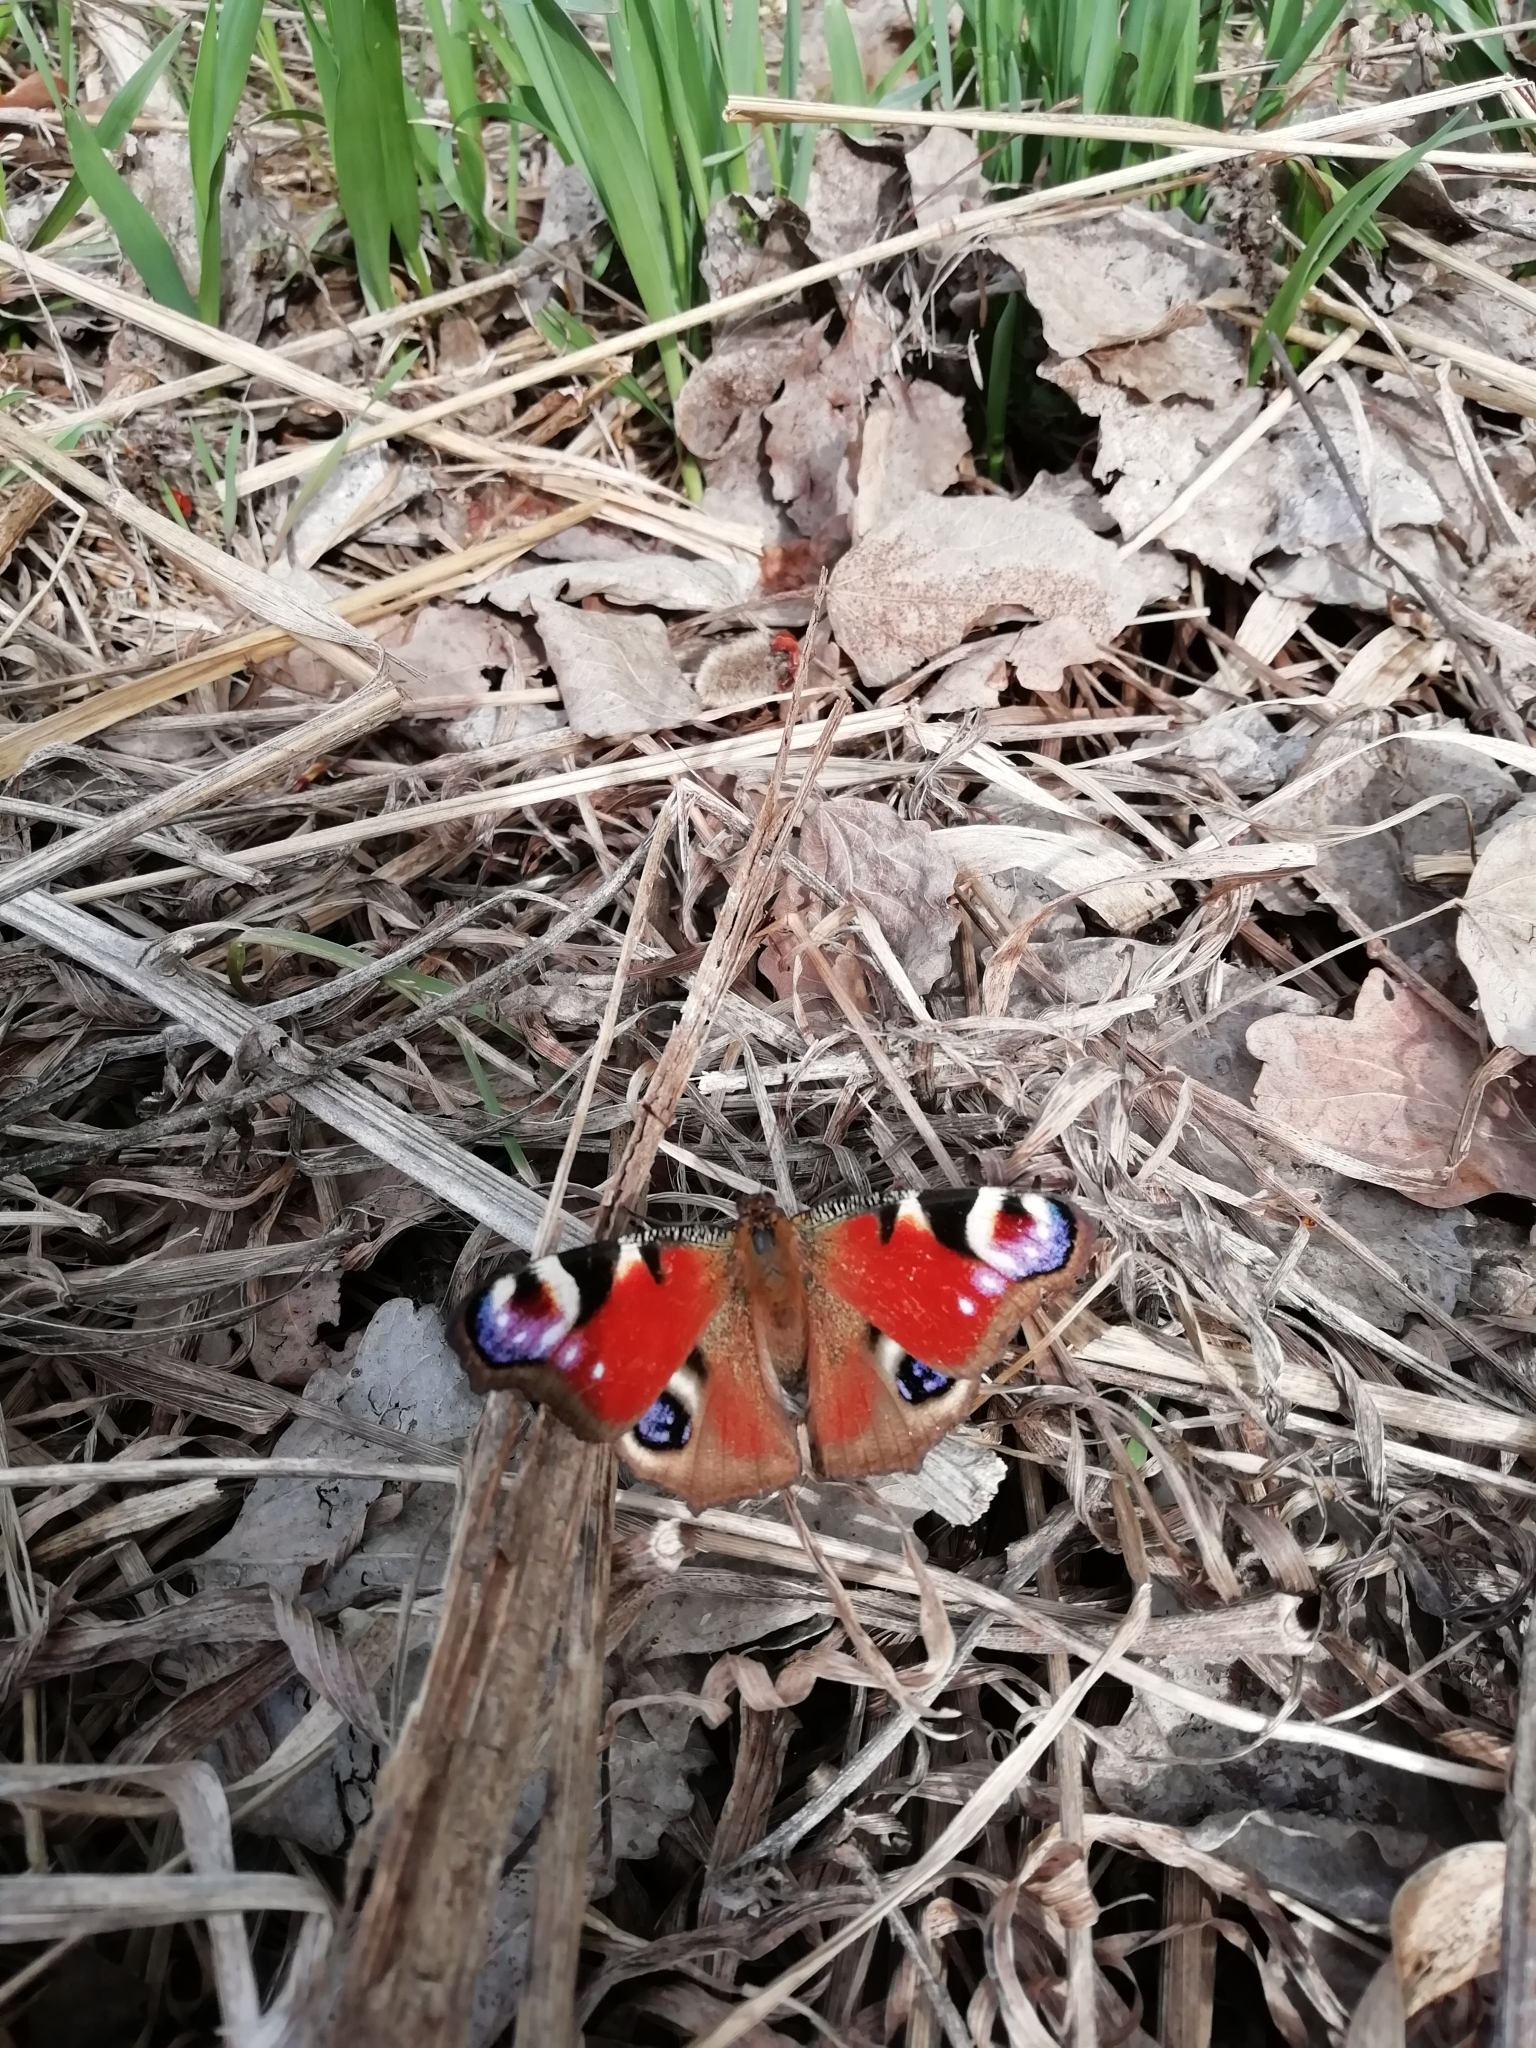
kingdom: Animalia
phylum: Arthropoda
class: Insecta
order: Lepidoptera
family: Nymphalidae
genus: Aglais
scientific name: Aglais io
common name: Peacock
